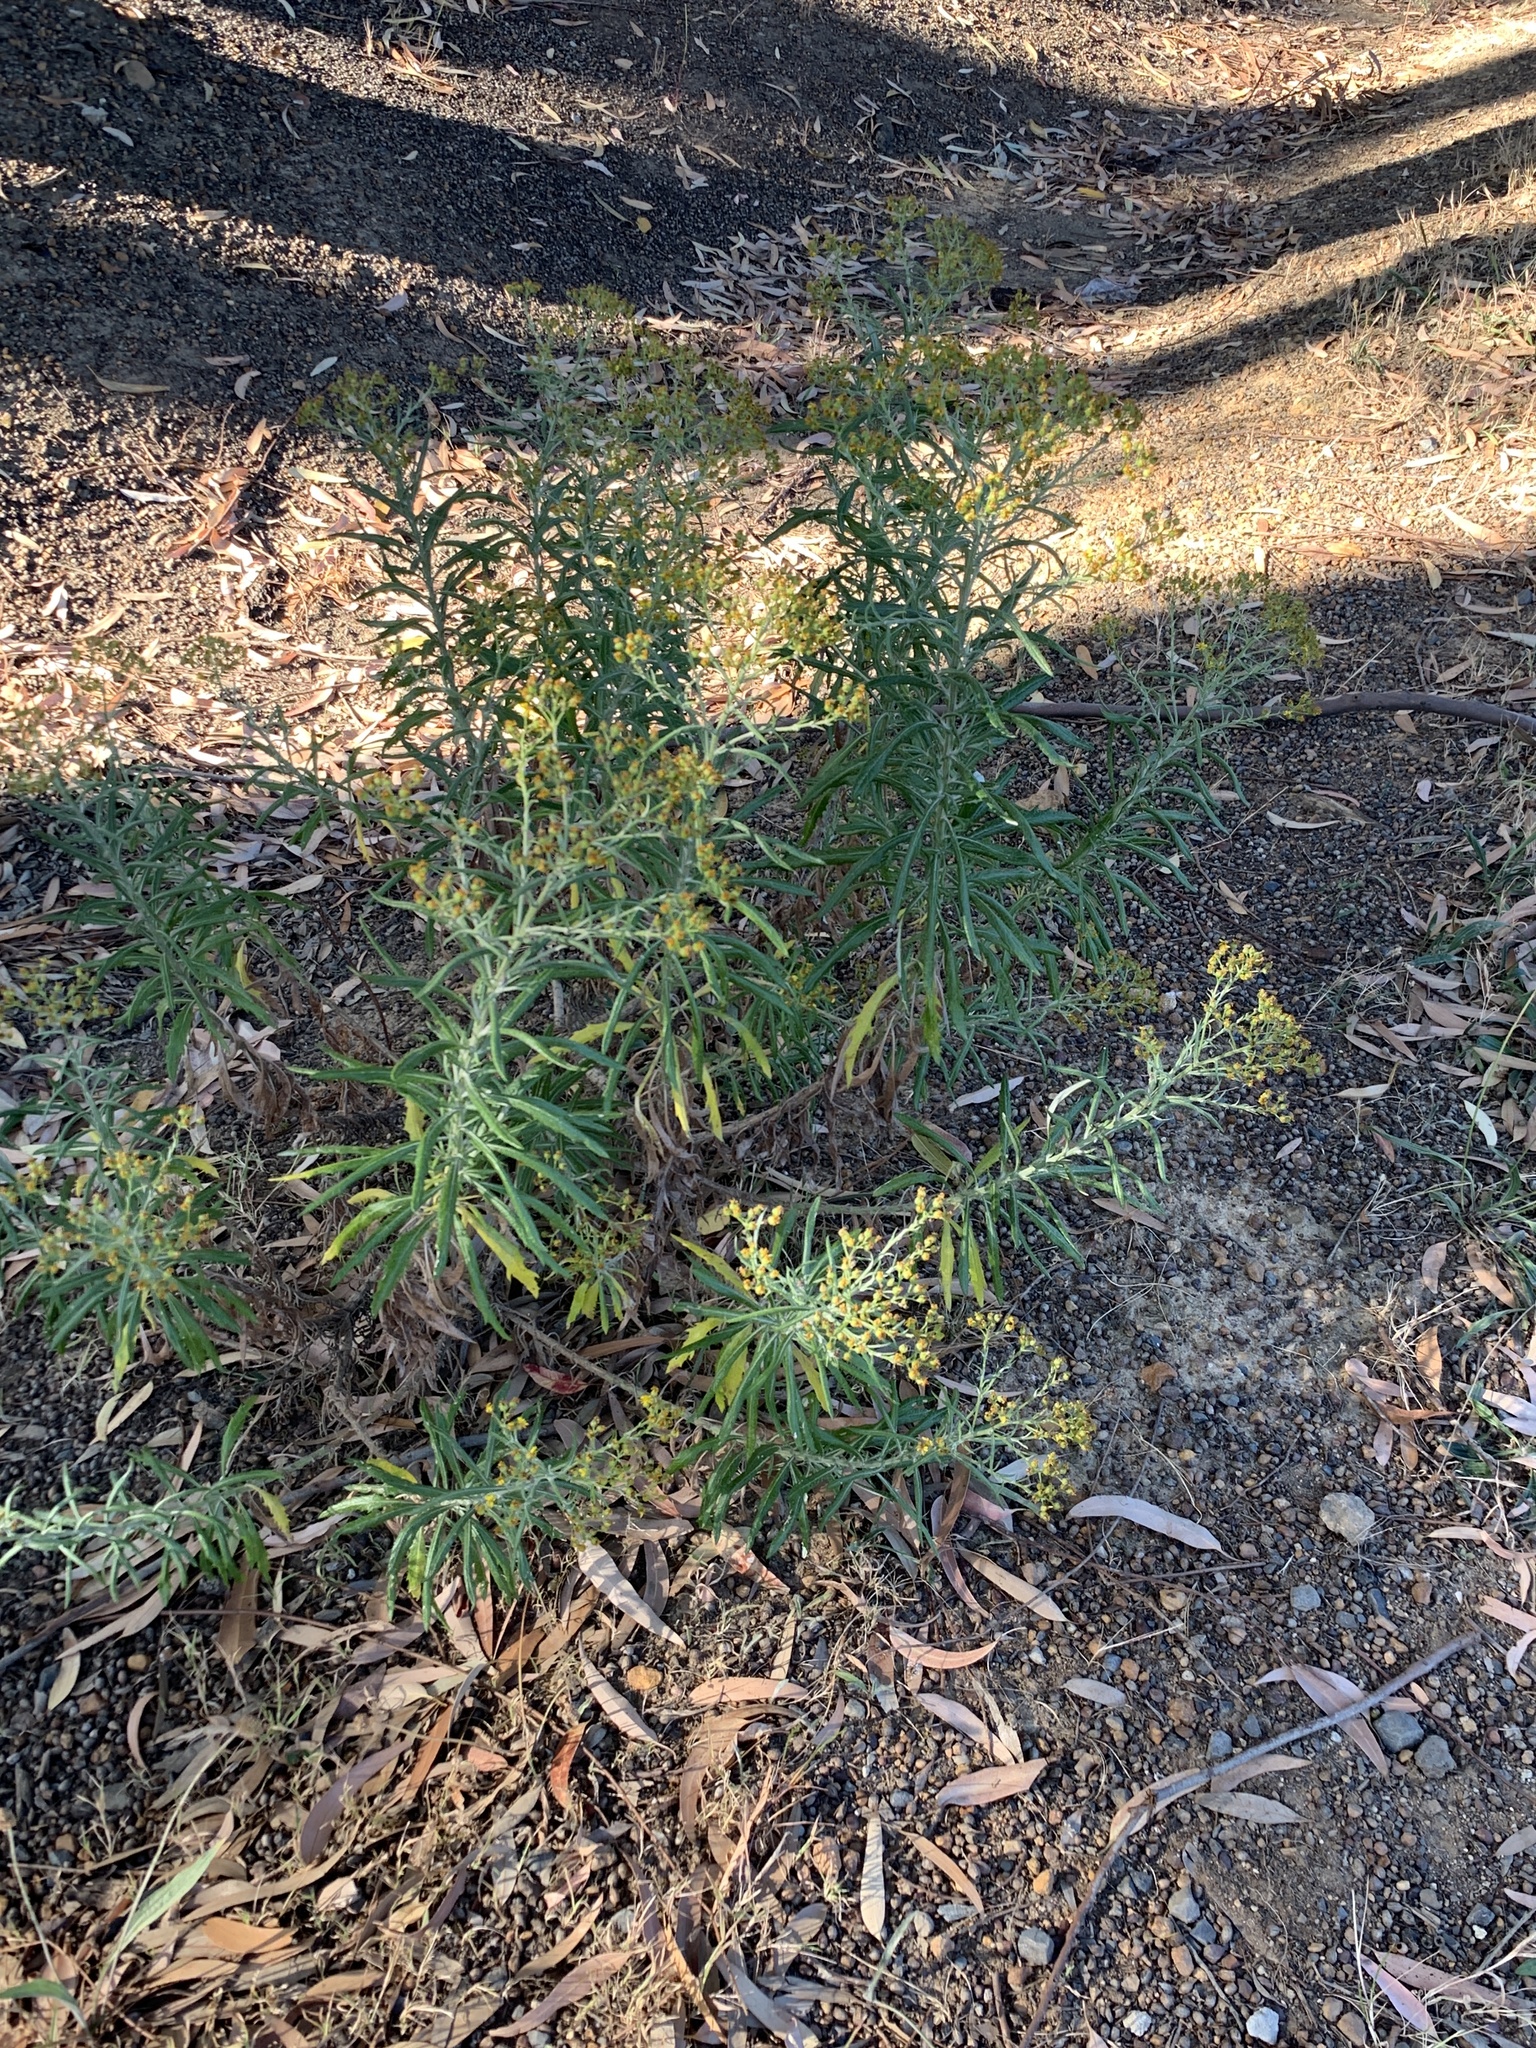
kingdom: Plantae
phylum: Tracheophyta
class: Magnoliopsida
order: Asterales
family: Asteraceae
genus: Senecio
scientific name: Senecio pterophorus
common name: Shoddy ragwort
